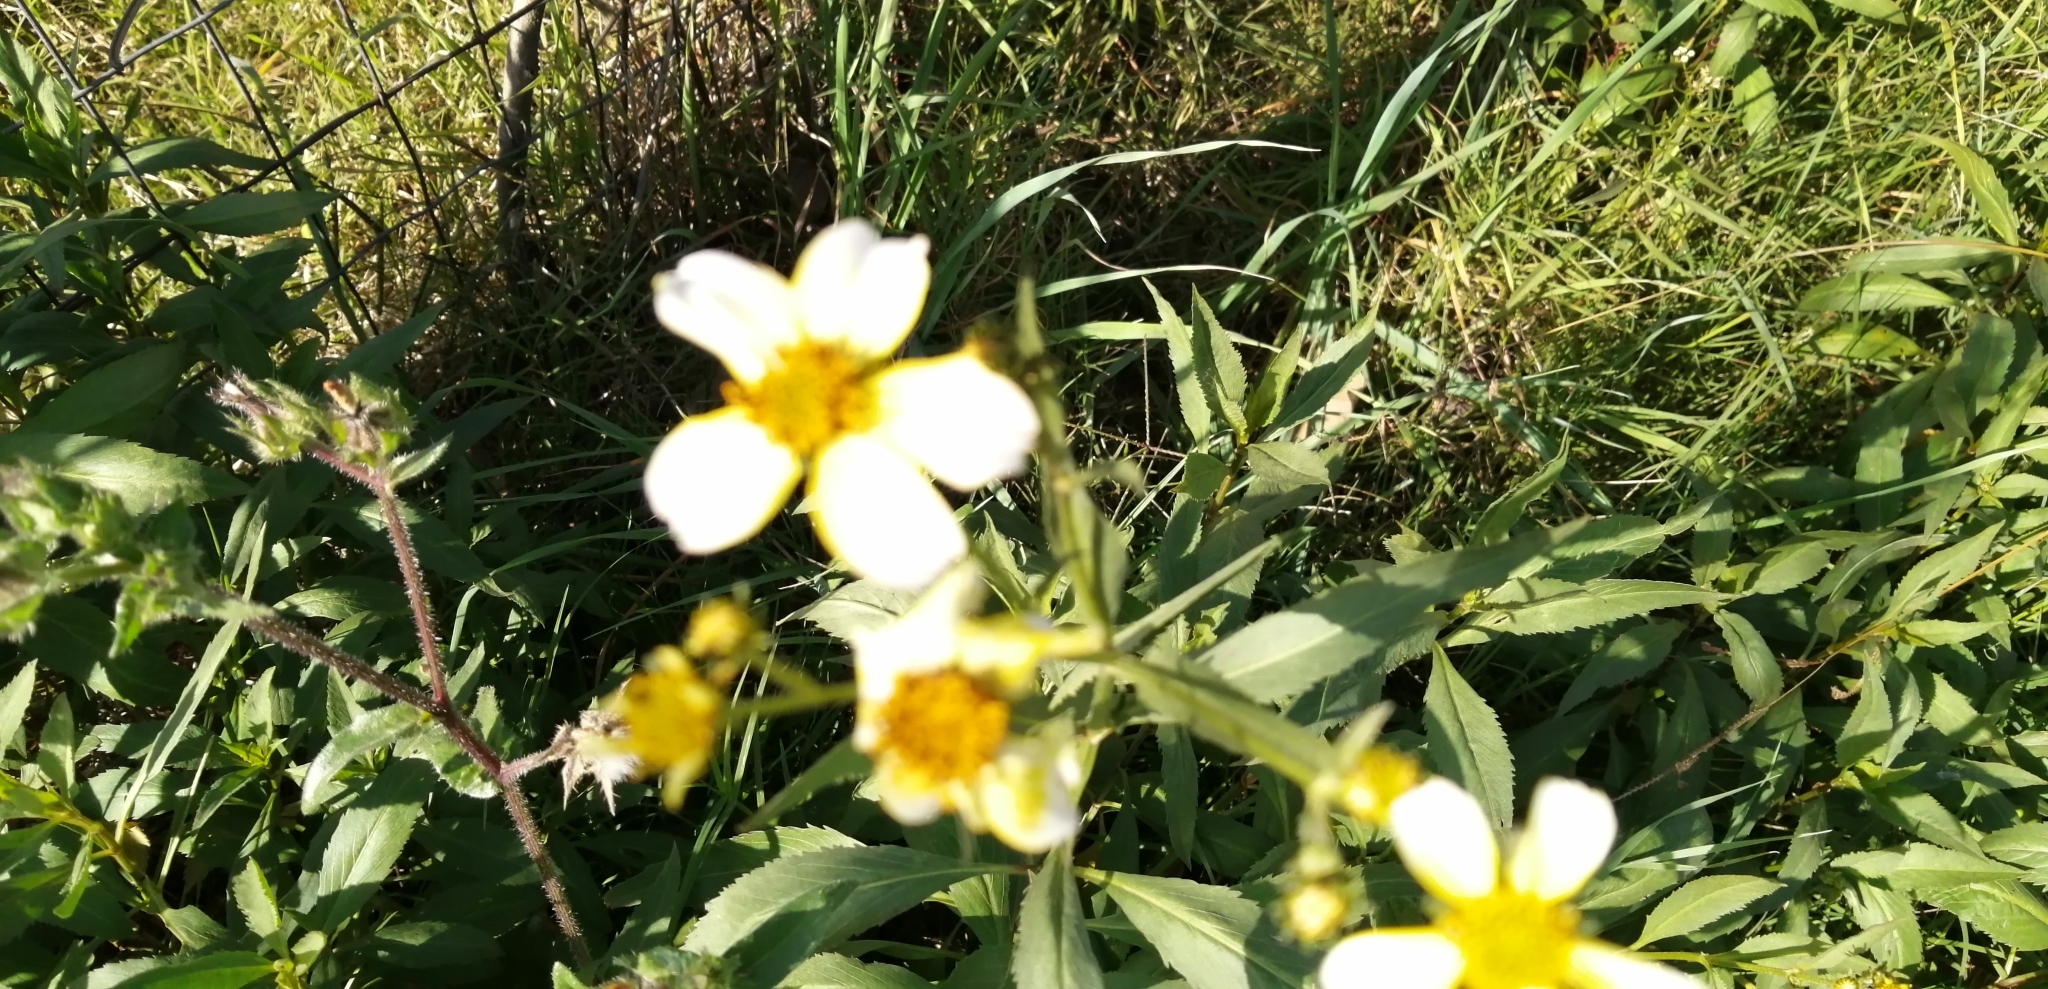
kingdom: Plantae
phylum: Tracheophyta
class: Magnoliopsida
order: Asterales
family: Asteraceae
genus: Bidens
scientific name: Bidens aurea
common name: Arizona beggar-ticks
